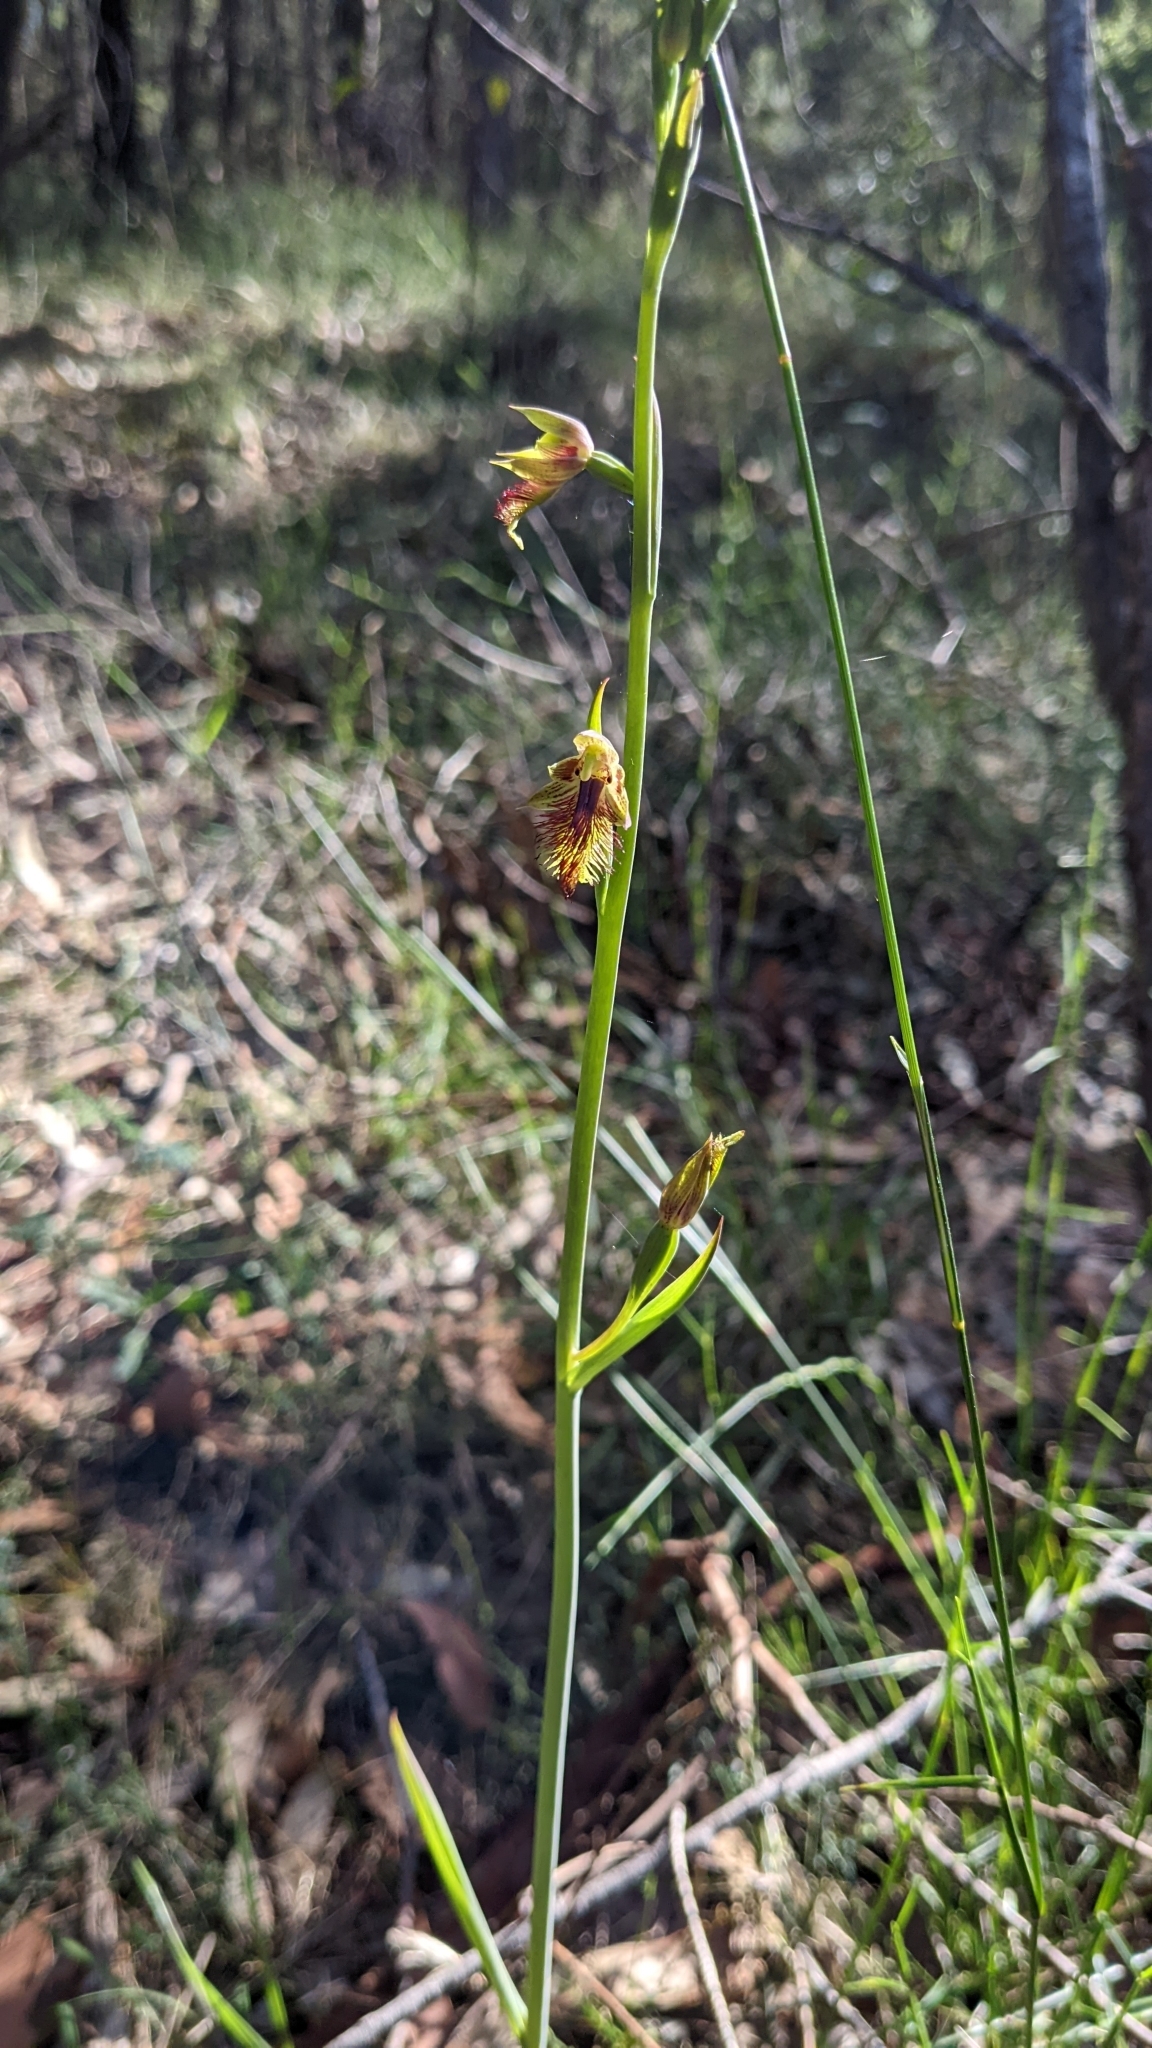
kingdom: Plantae
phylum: Tracheophyta
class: Liliopsida
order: Asparagales
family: Orchidaceae
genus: Calochilus
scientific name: Calochilus campestris
